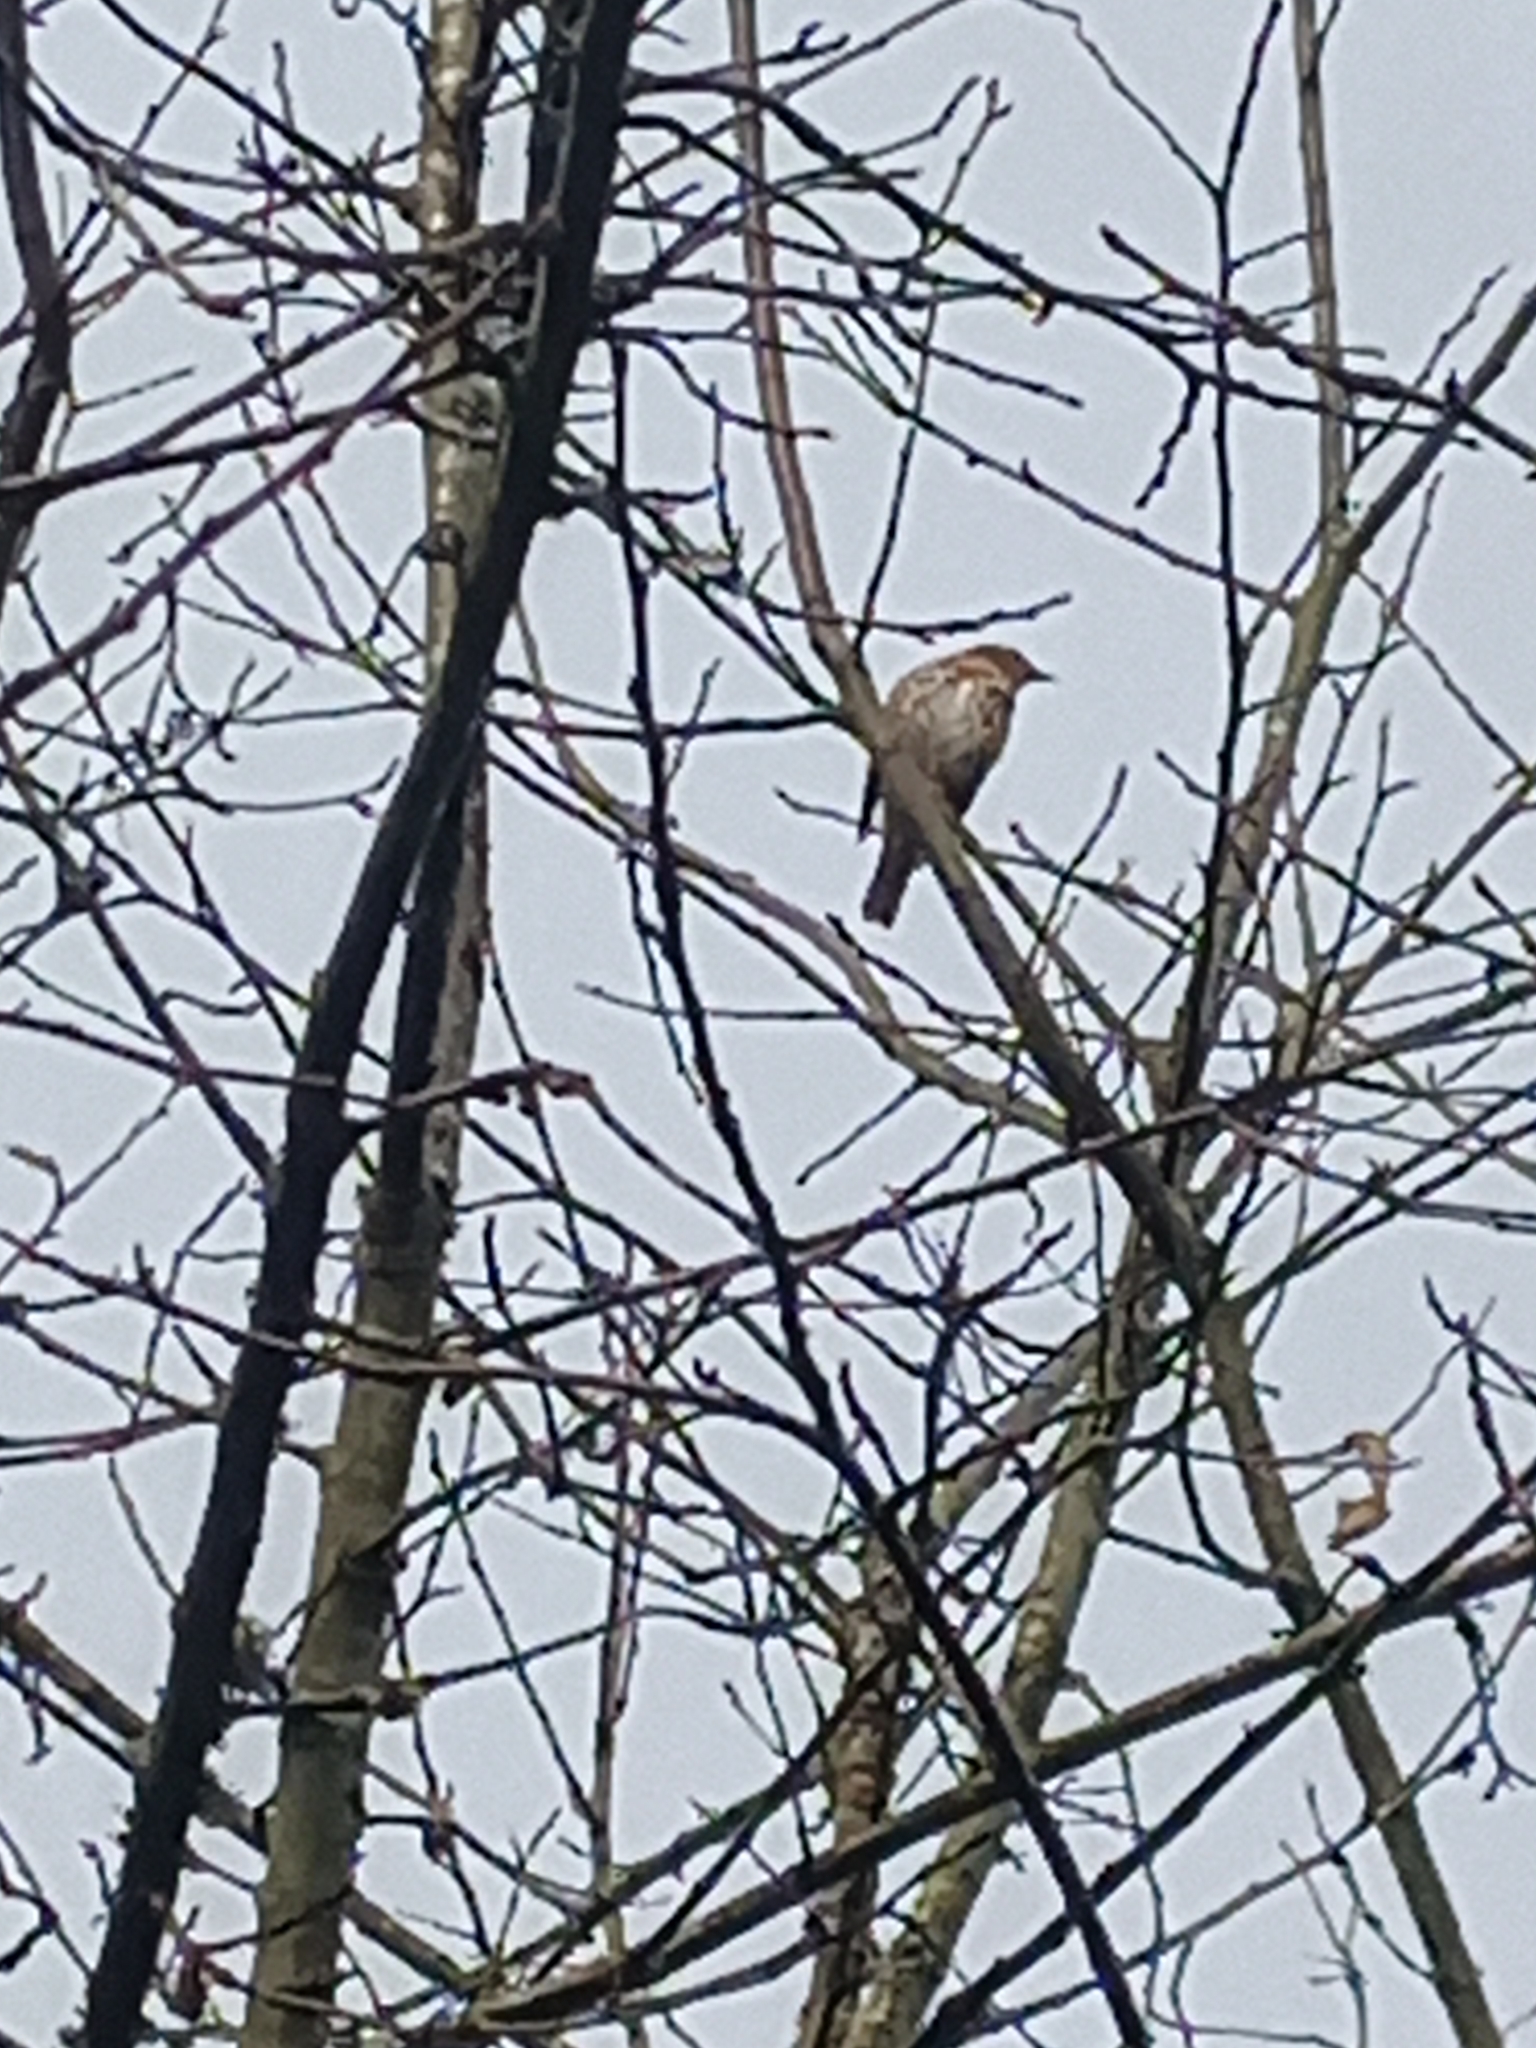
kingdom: Animalia
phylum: Chordata
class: Aves
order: Passeriformes
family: Turdidae
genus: Turdus
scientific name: Turdus philomelos
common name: Song thrush
